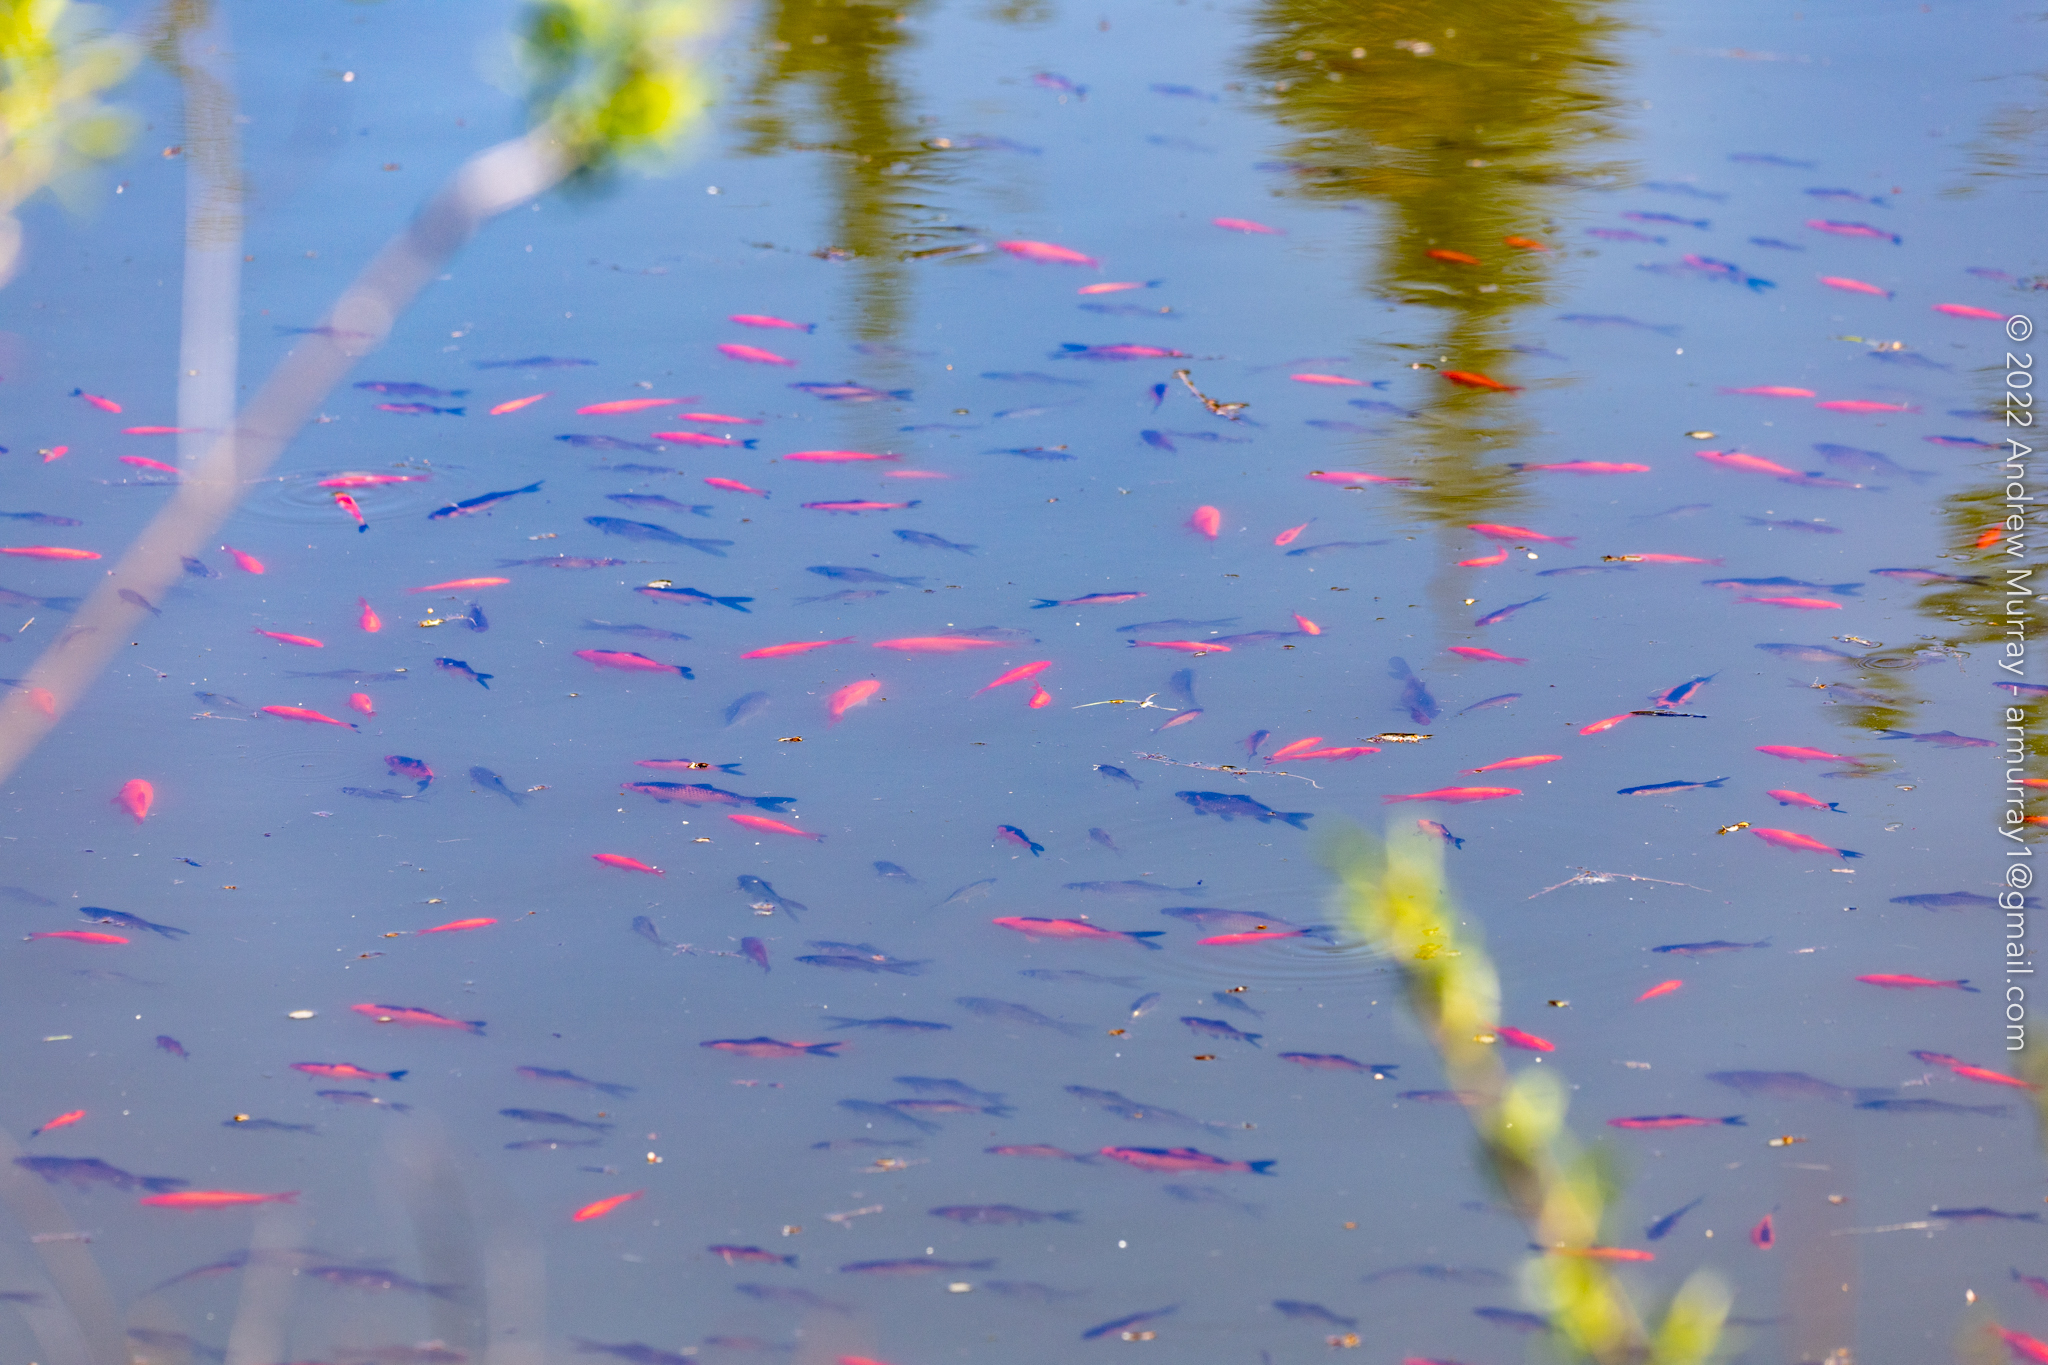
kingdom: Animalia
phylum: Chordata
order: Cypriniformes
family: Cyprinidae
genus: Carassius
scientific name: Carassius auratus
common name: Goldfish
